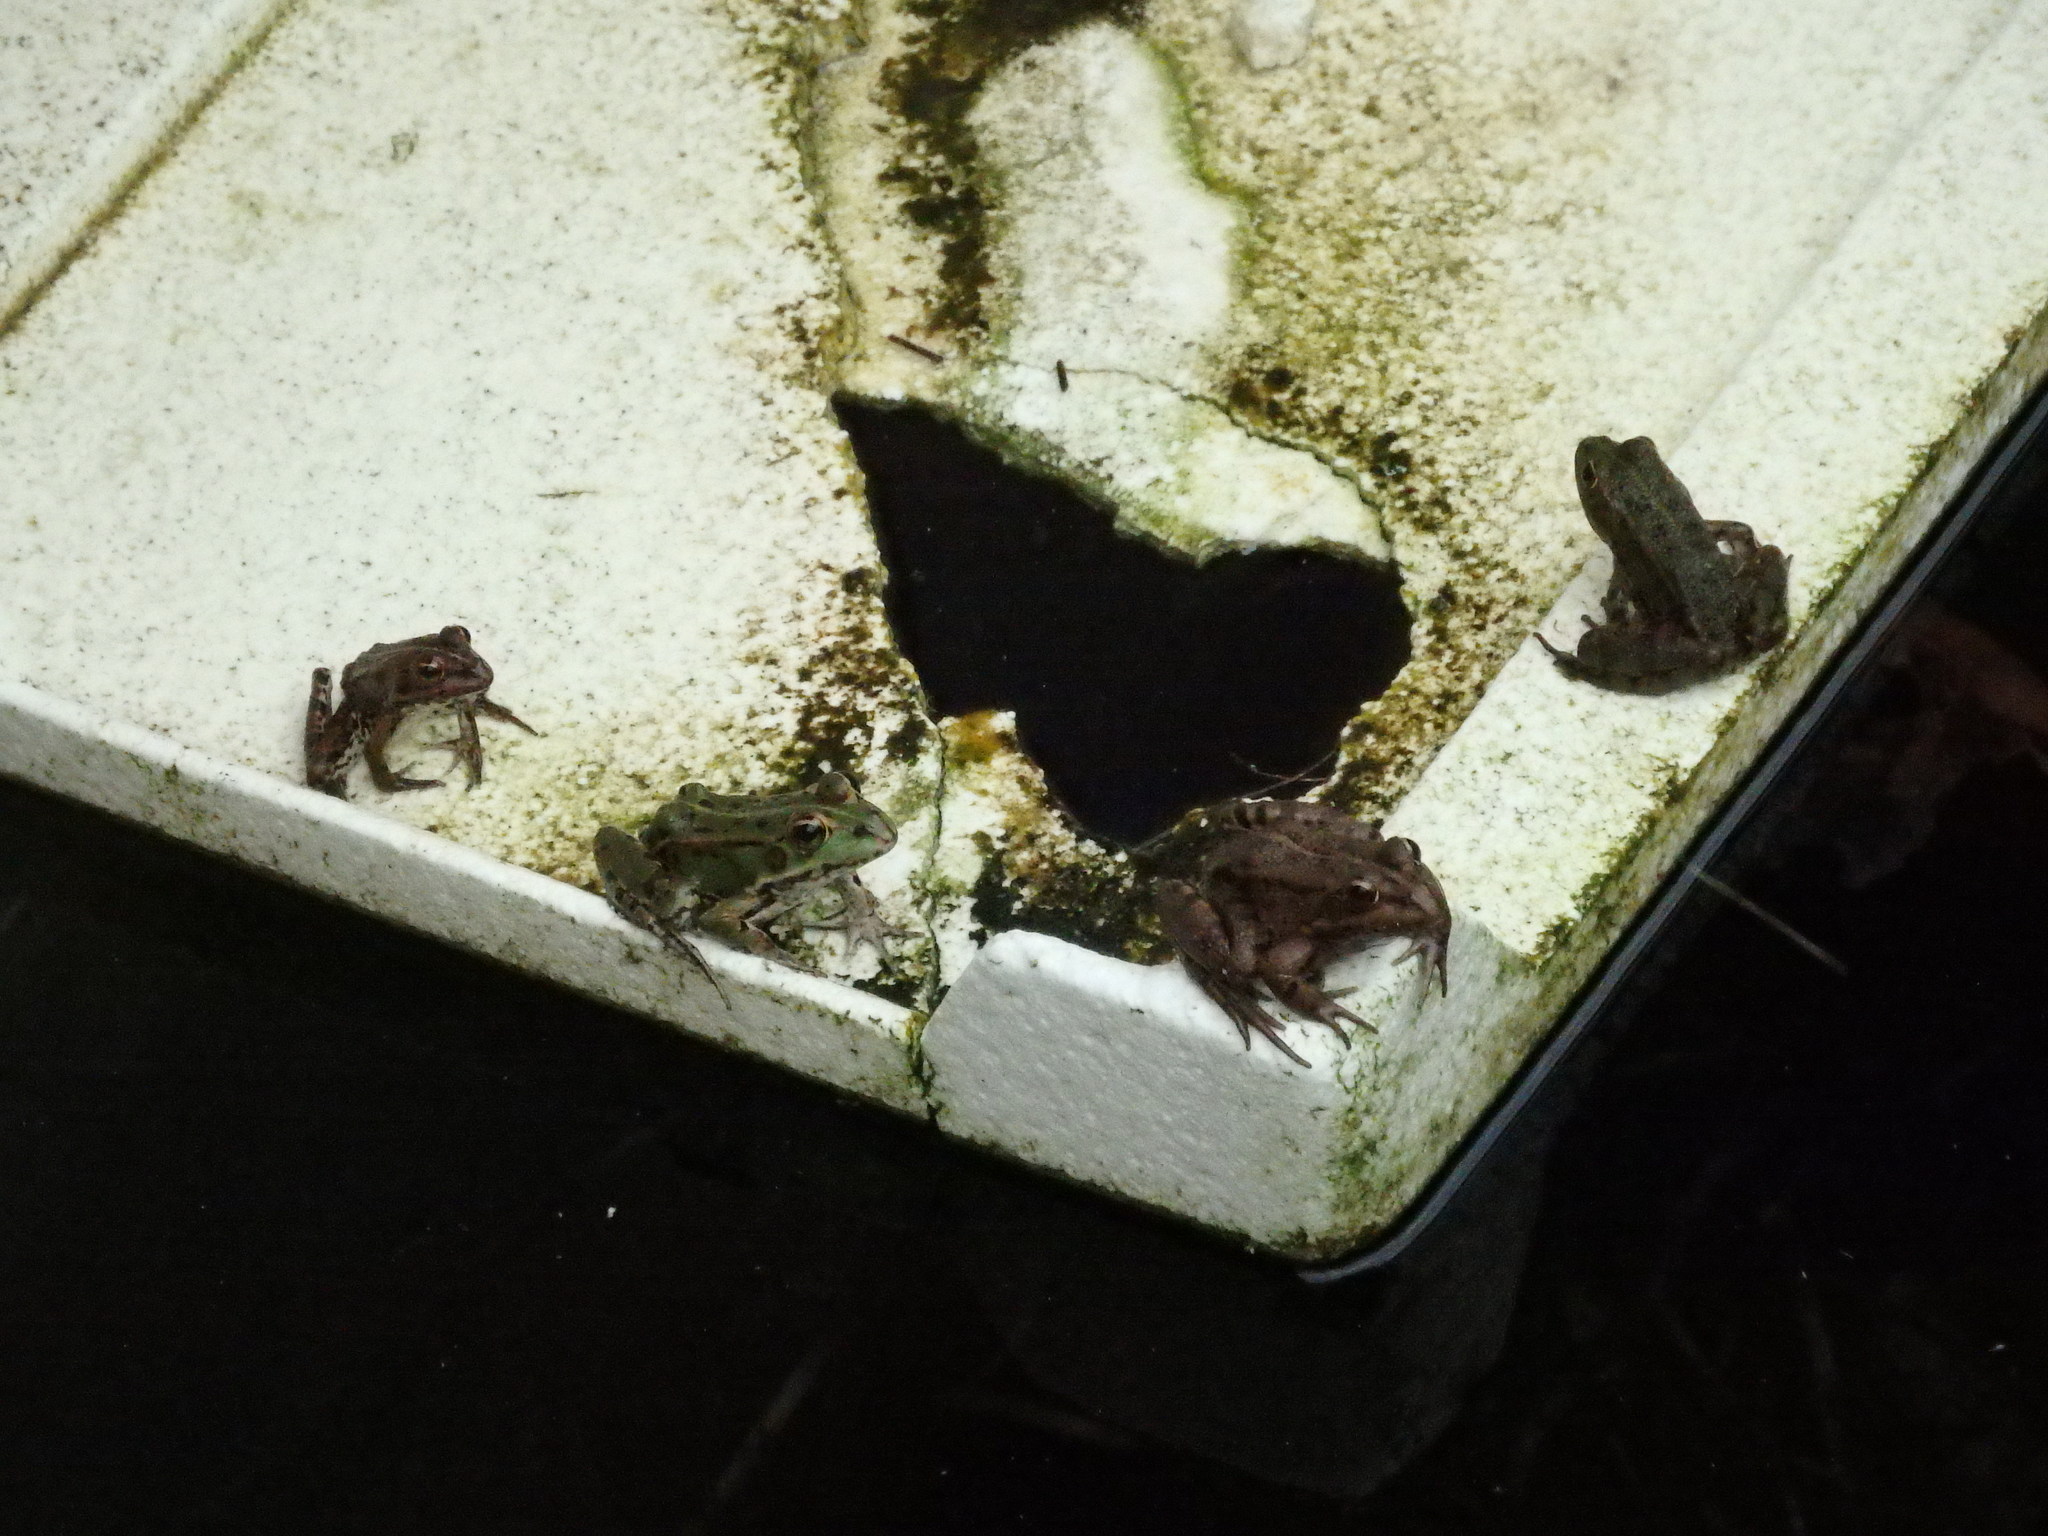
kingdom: Animalia
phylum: Chordata
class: Amphibia
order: Anura
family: Ranidae
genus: Pelophylax
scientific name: Pelophylax perezi
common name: Perez's frog
